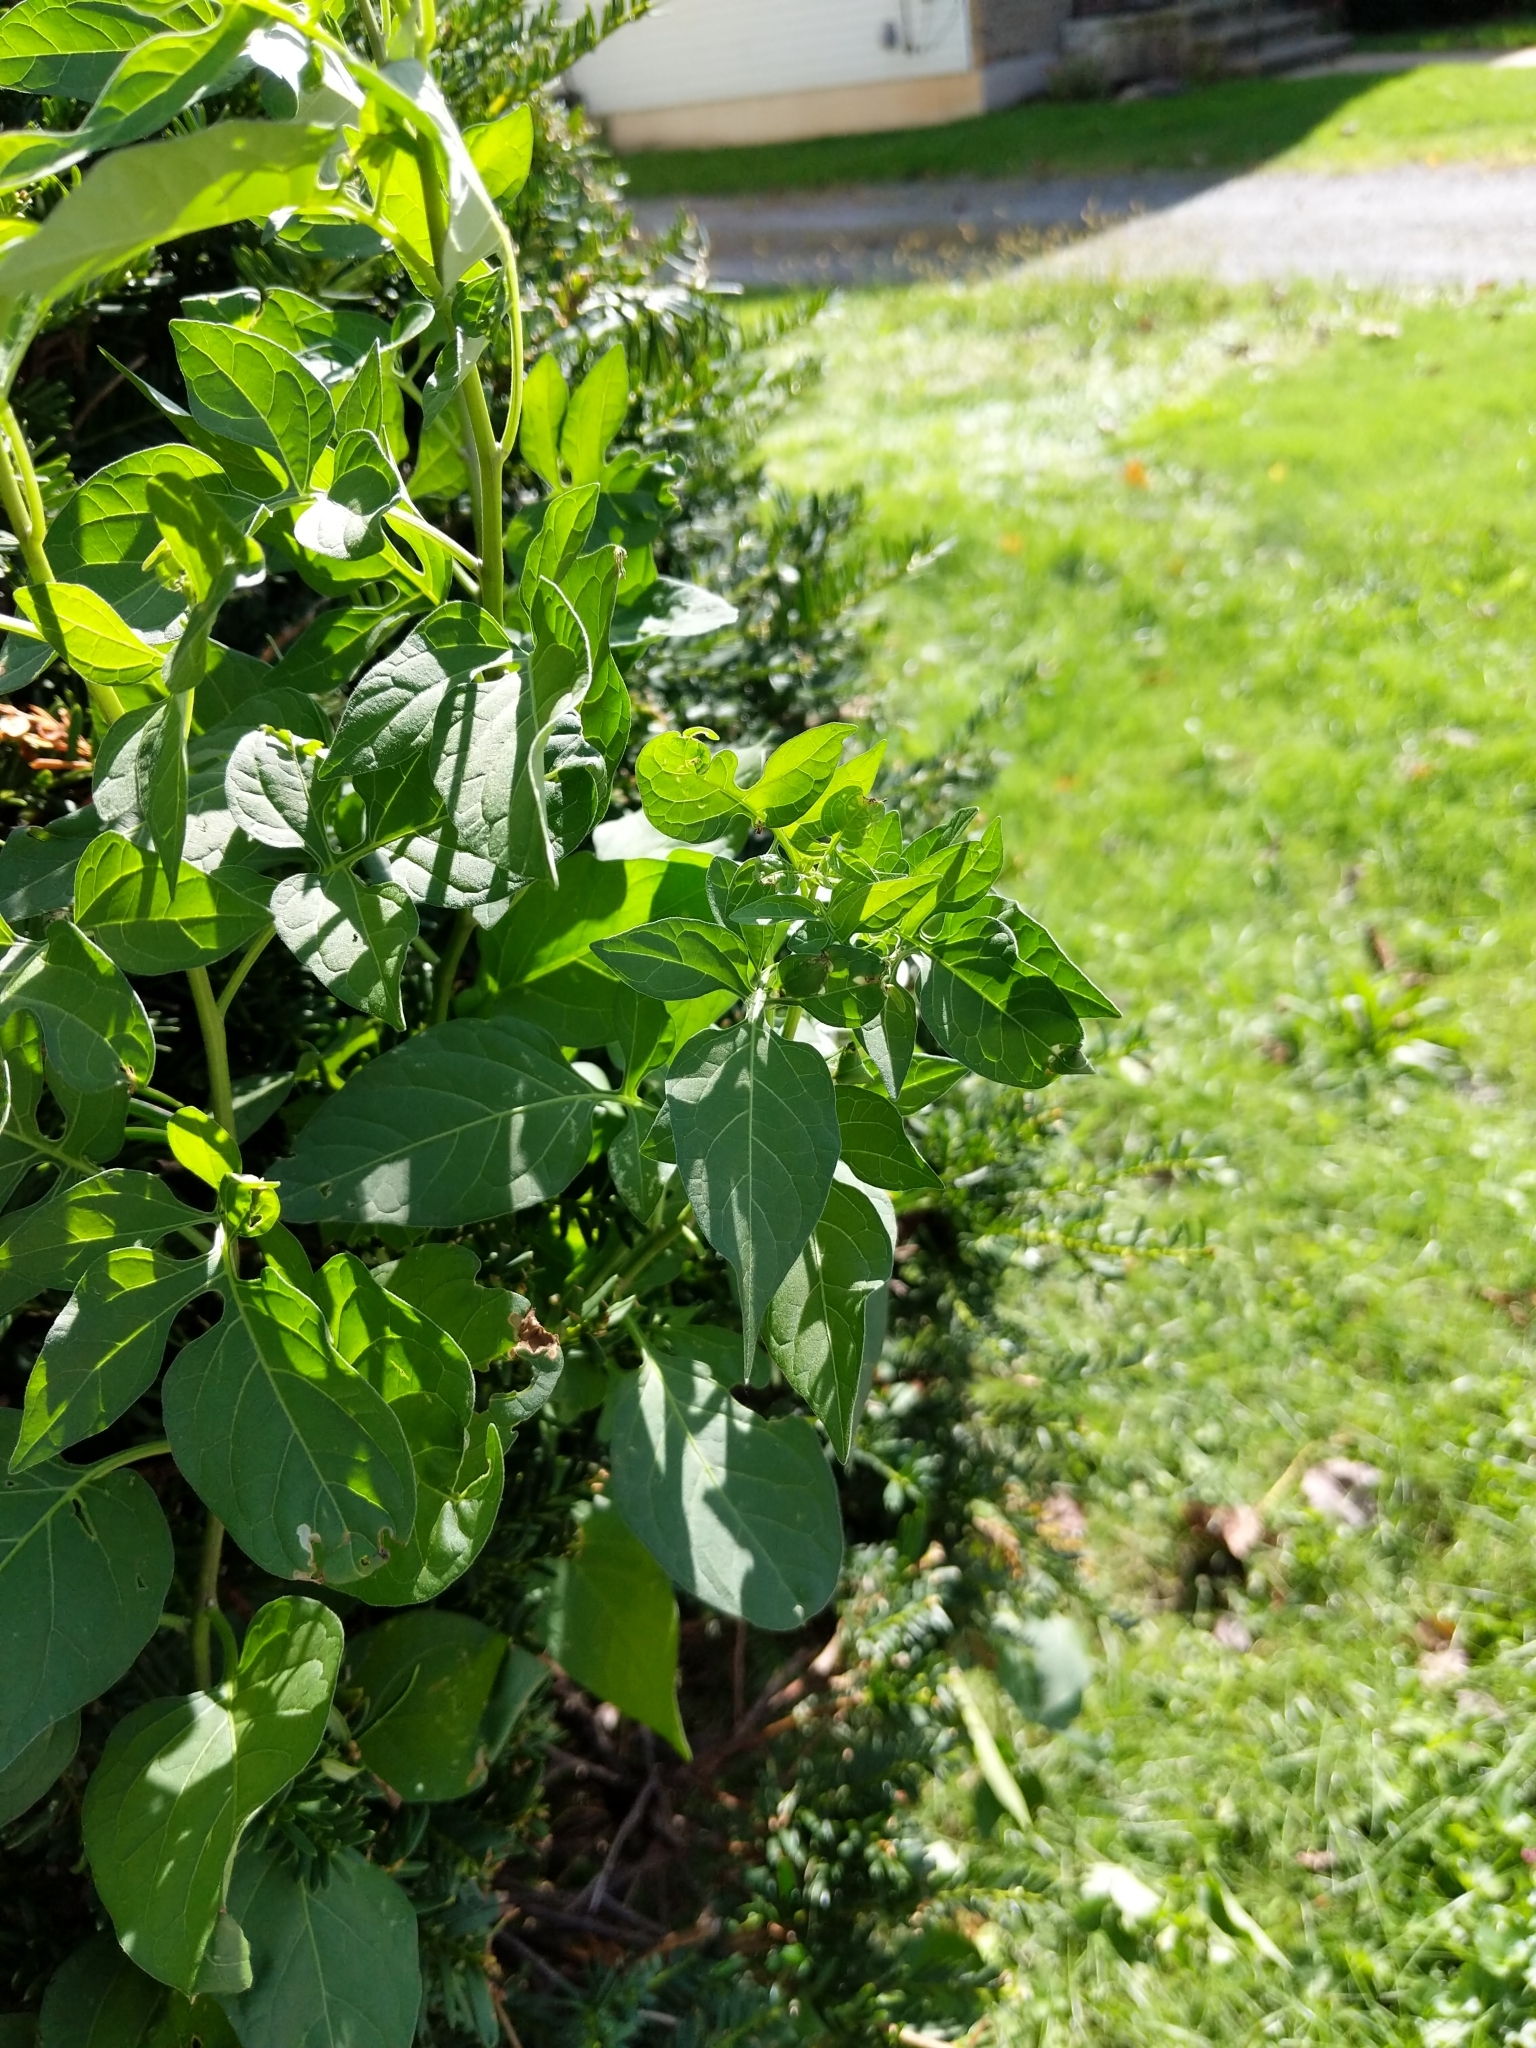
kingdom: Plantae
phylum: Tracheophyta
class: Magnoliopsida
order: Solanales
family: Solanaceae
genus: Solanum
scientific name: Solanum dulcamara
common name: Climbing nightshade
